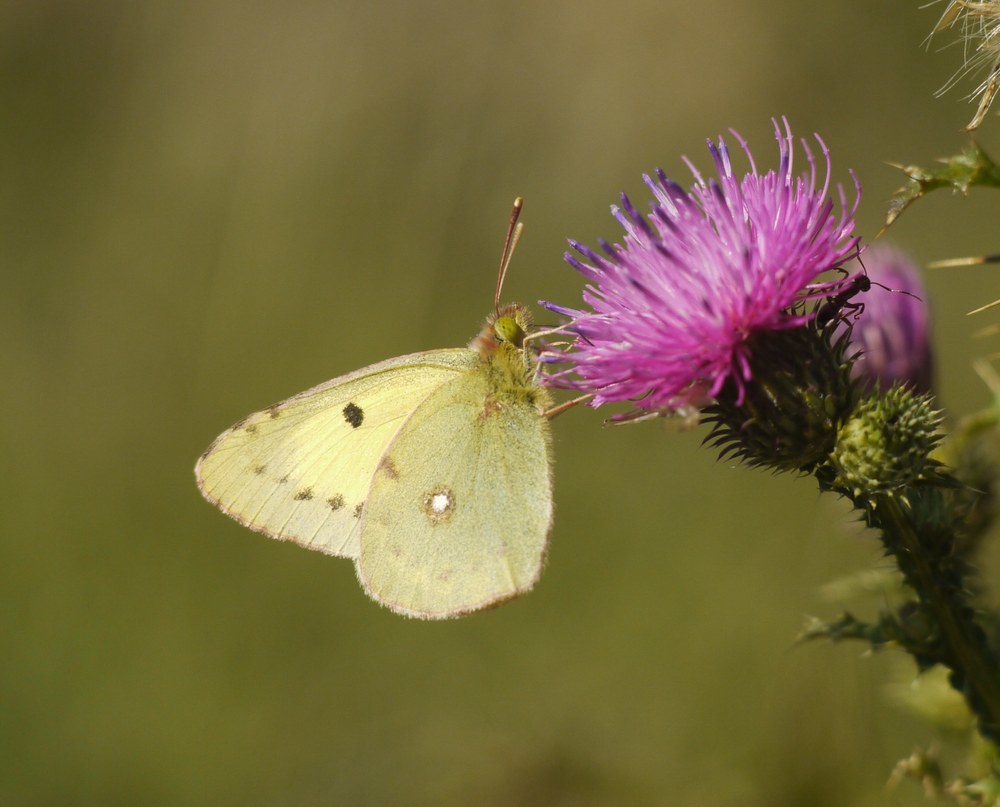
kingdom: Animalia
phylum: Arthropoda
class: Insecta
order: Lepidoptera
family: Pieridae
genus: Colias
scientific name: Colias erate
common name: Eastern pale clouded yellow
